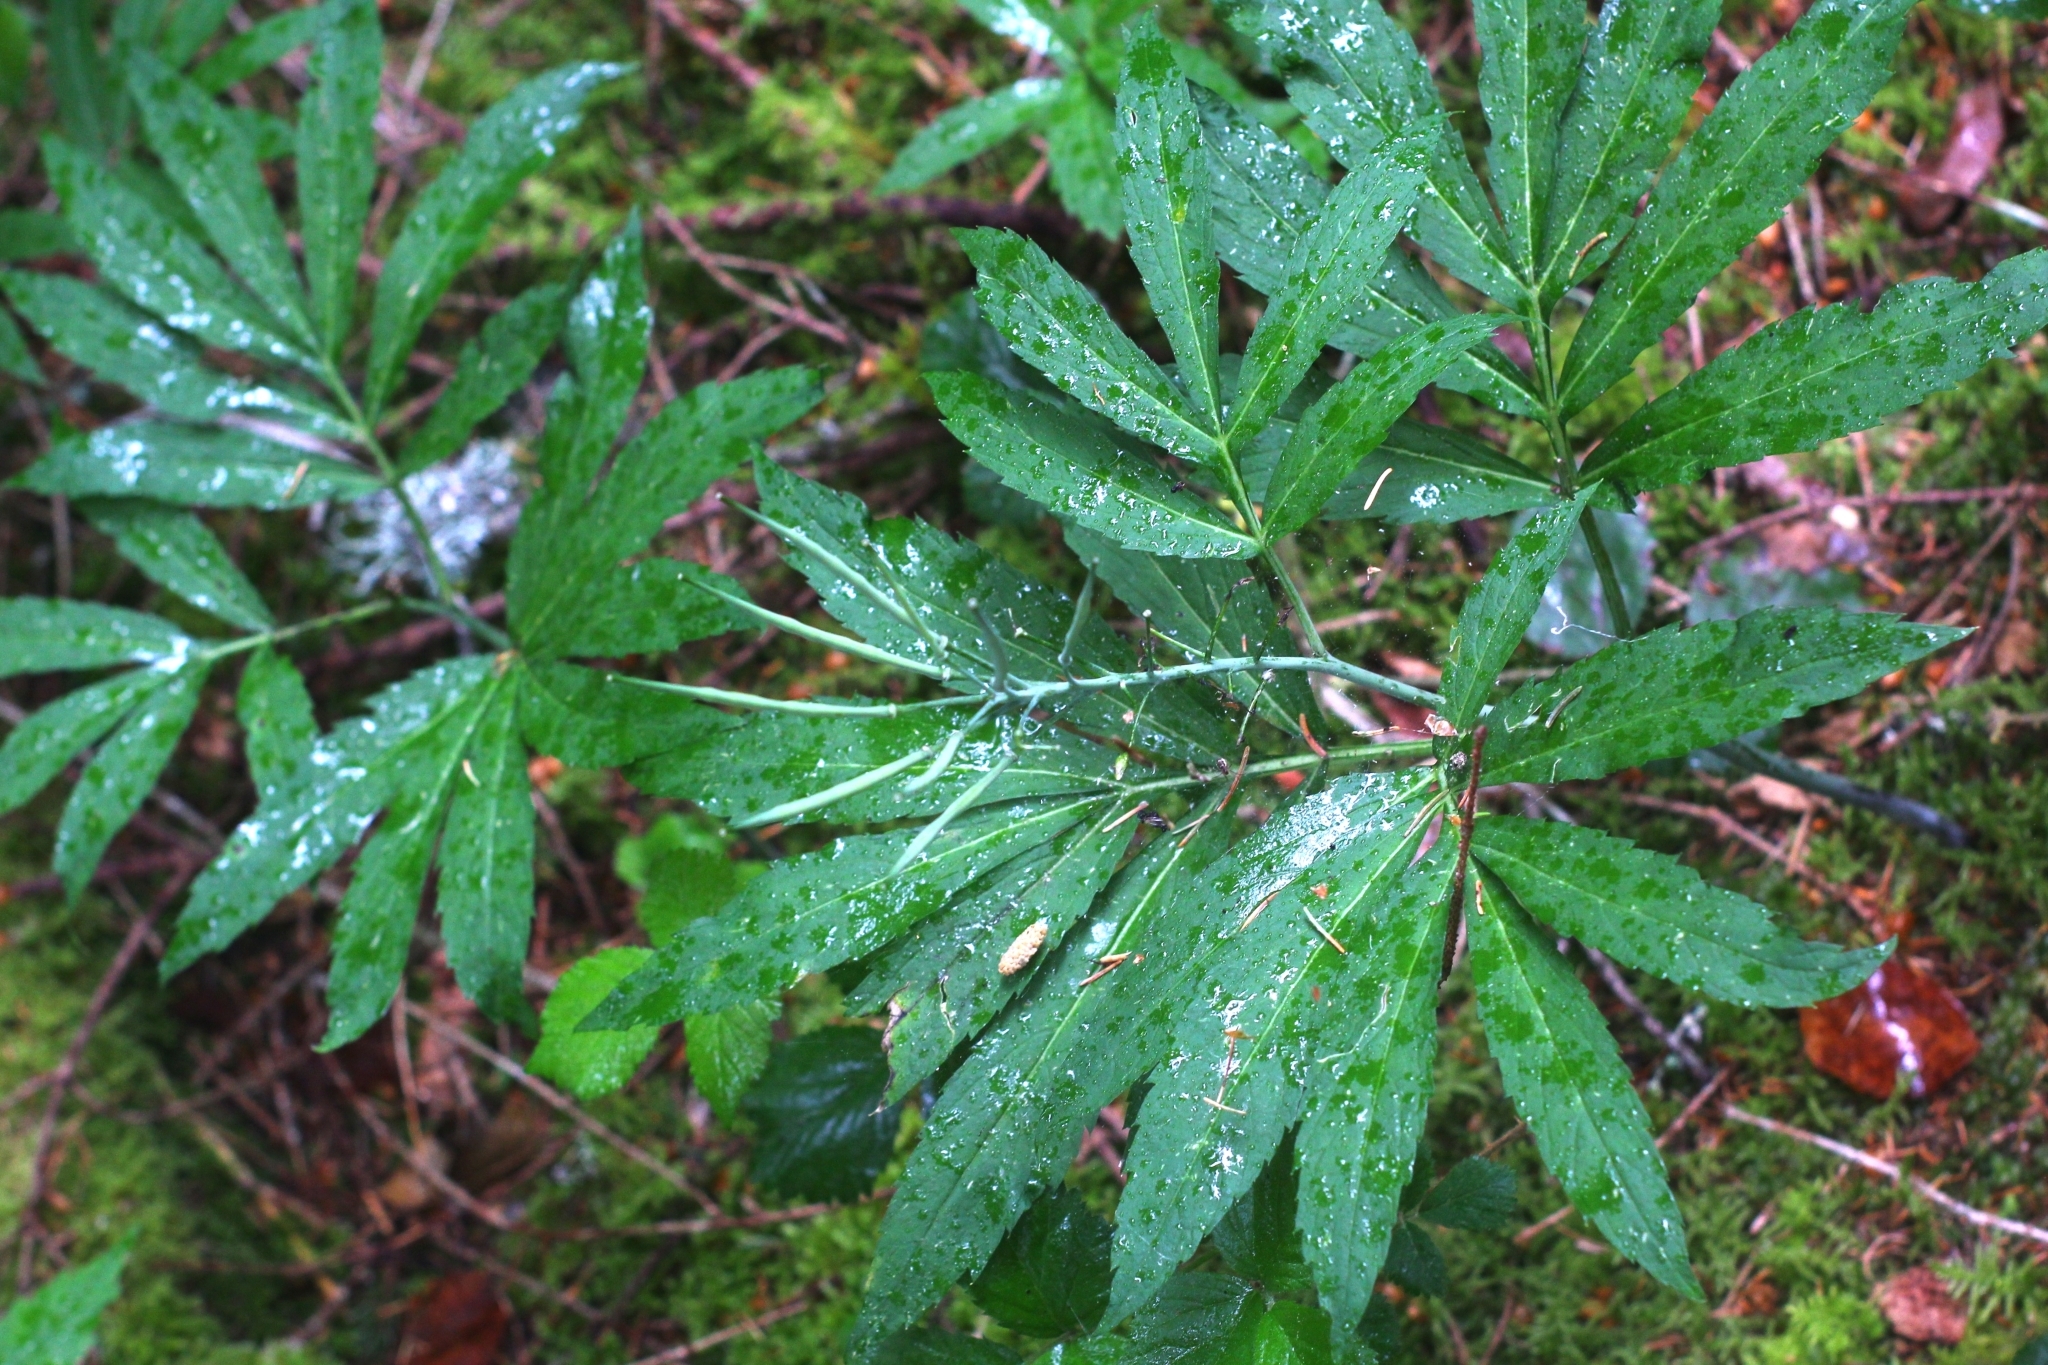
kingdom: Plantae
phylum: Tracheophyta
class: Magnoliopsida
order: Brassicales
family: Brassicaceae
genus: Cardamine
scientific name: Cardamine heptaphylla
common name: Pinnate coralroot
